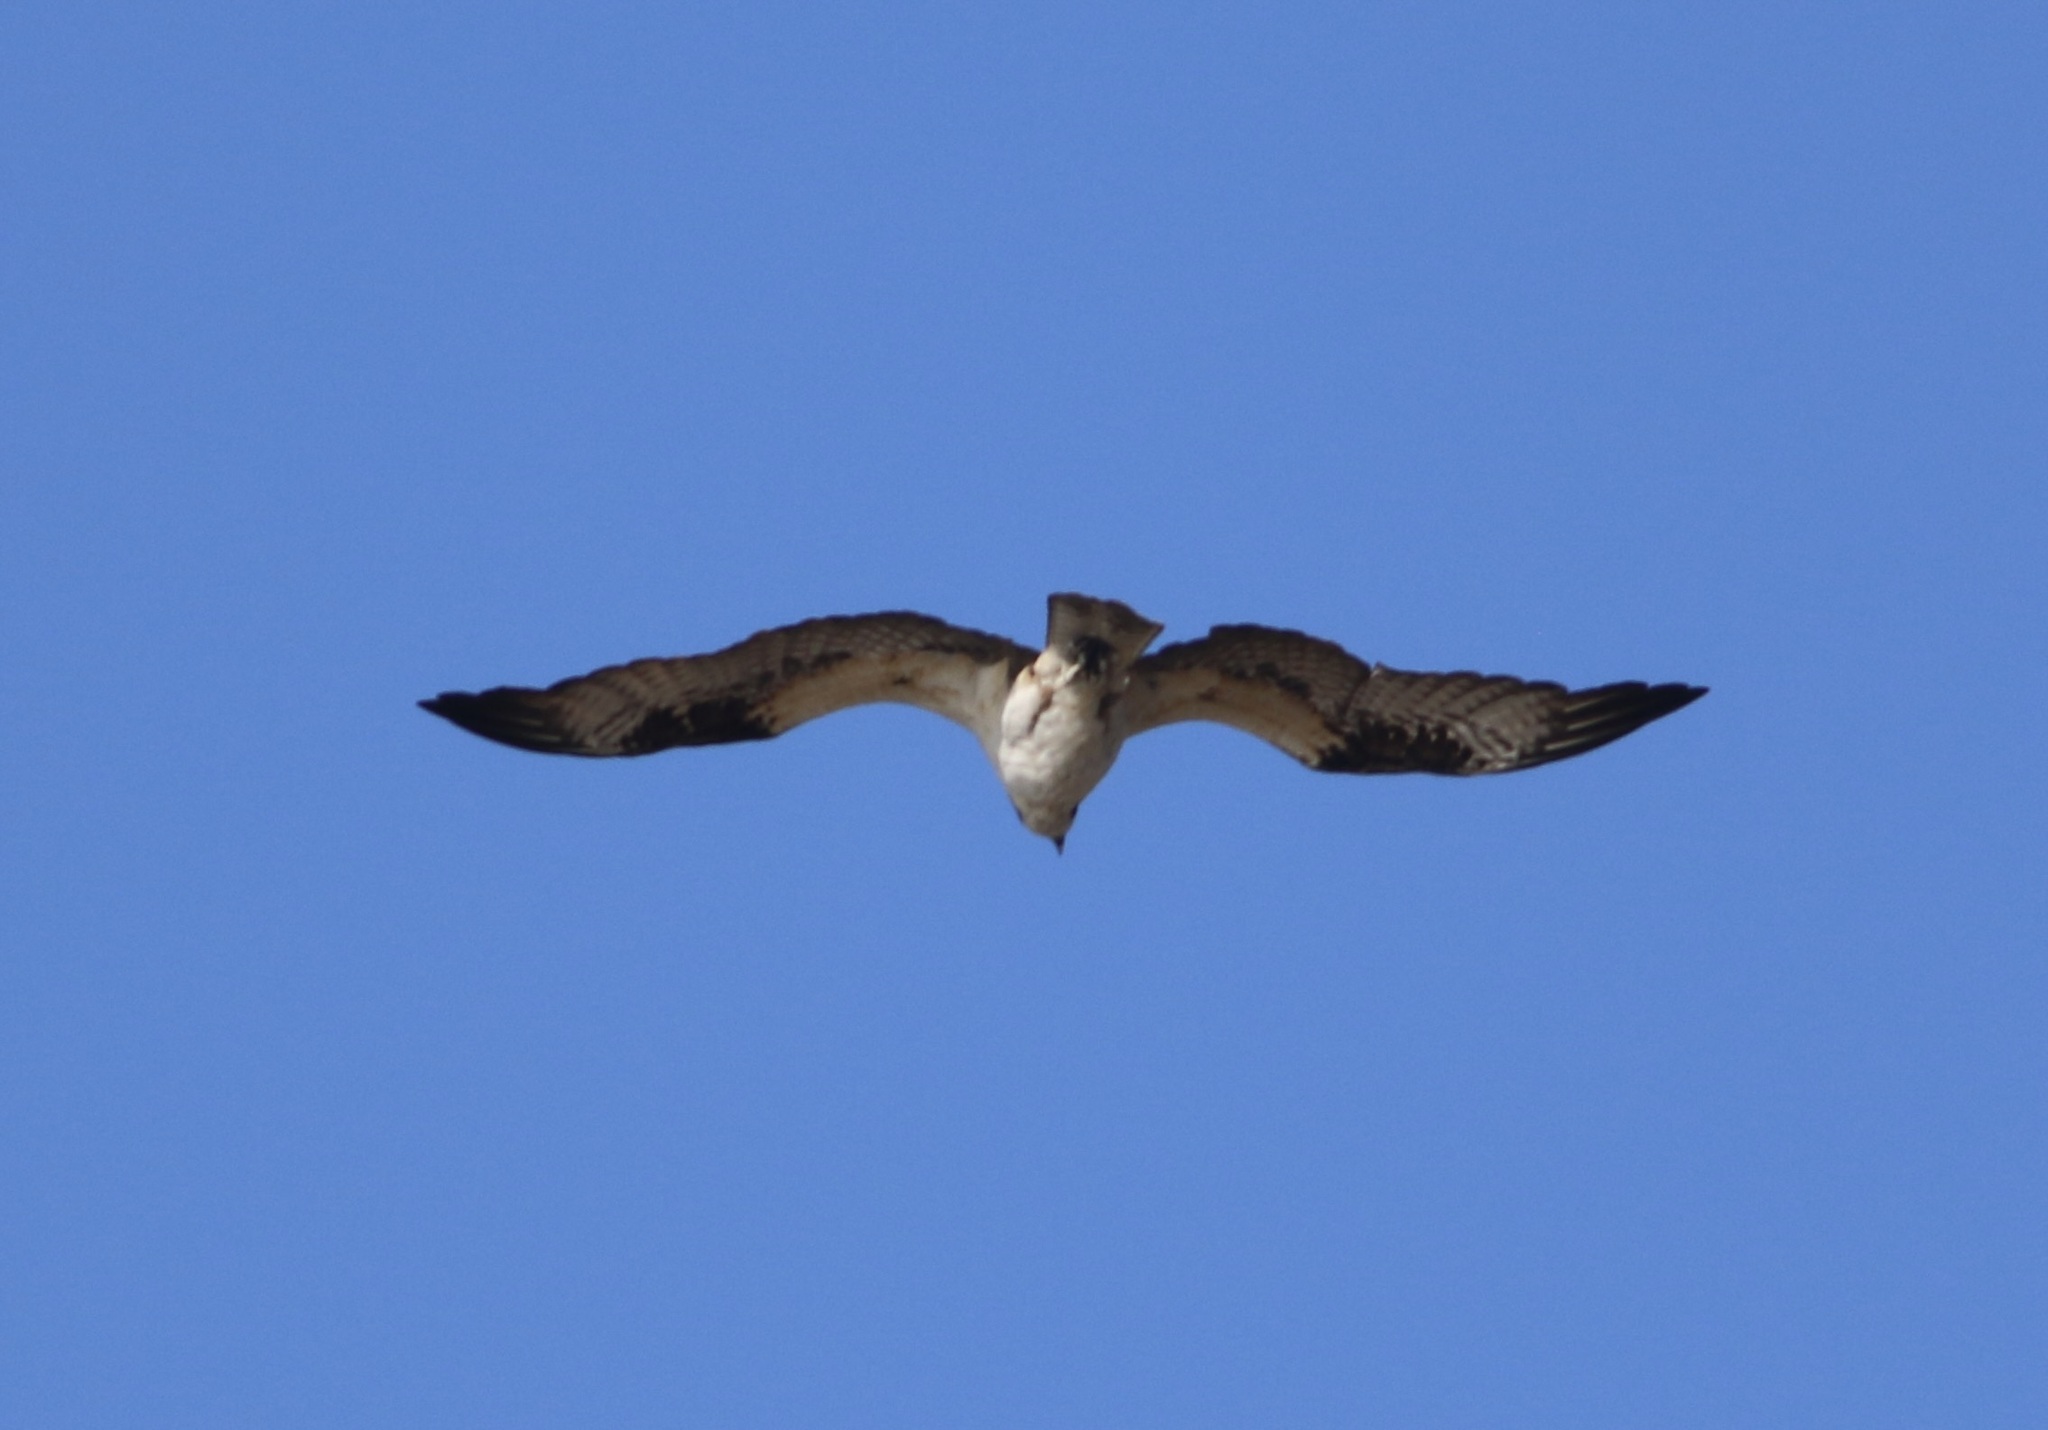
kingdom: Animalia
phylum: Chordata
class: Aves
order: Accipitriformes
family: Pandionidae
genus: Pandion
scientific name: Pandion haliaetus
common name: Osprey
